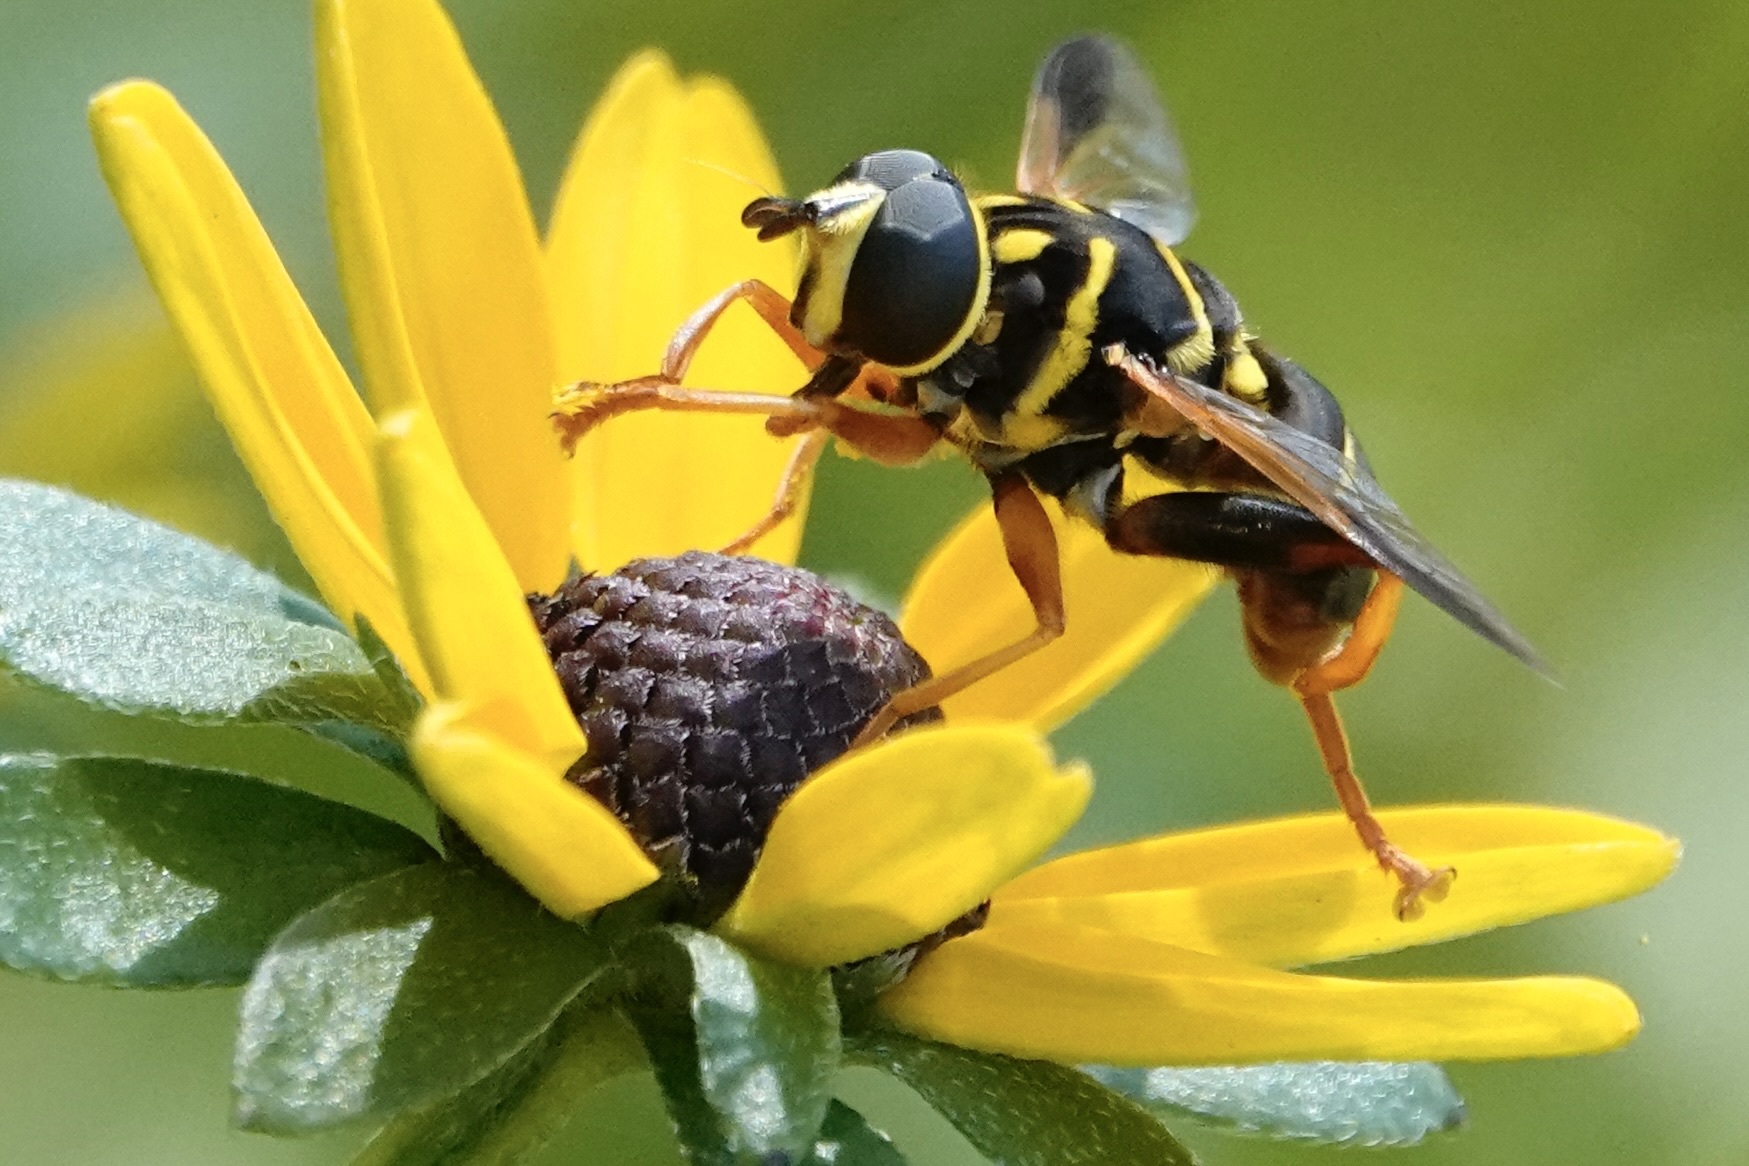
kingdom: Animalia
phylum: Arthropoda
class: Insecta
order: Diptera
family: Syrphidae
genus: Meromacrus
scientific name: Meromacrus acutus
